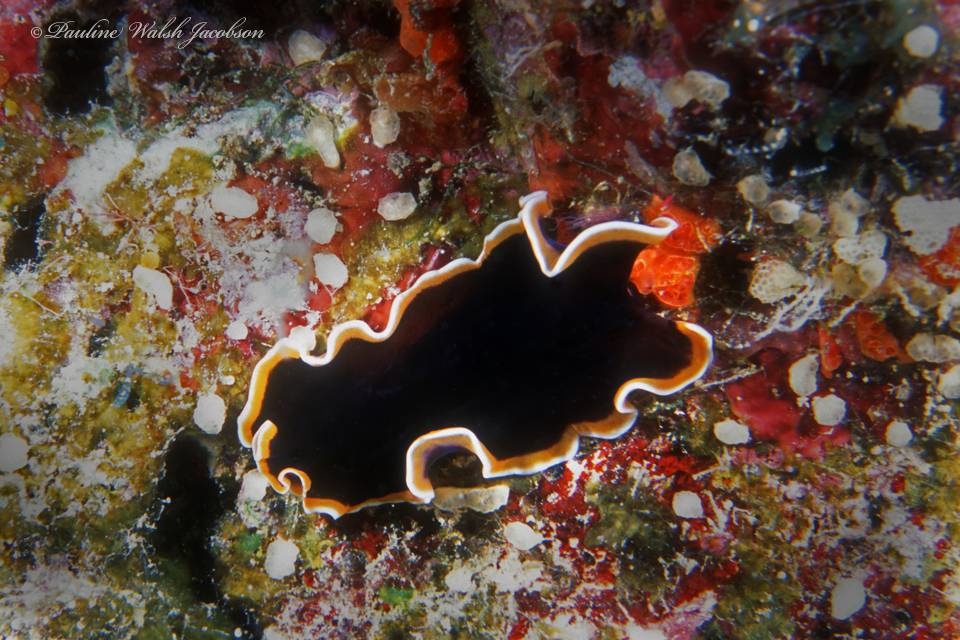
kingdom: Animalia
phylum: Platyhelminthes
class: Turbellaria
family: Pseudocerotidae
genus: Pseudobiceros
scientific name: Pseudobiceros hancockanus
